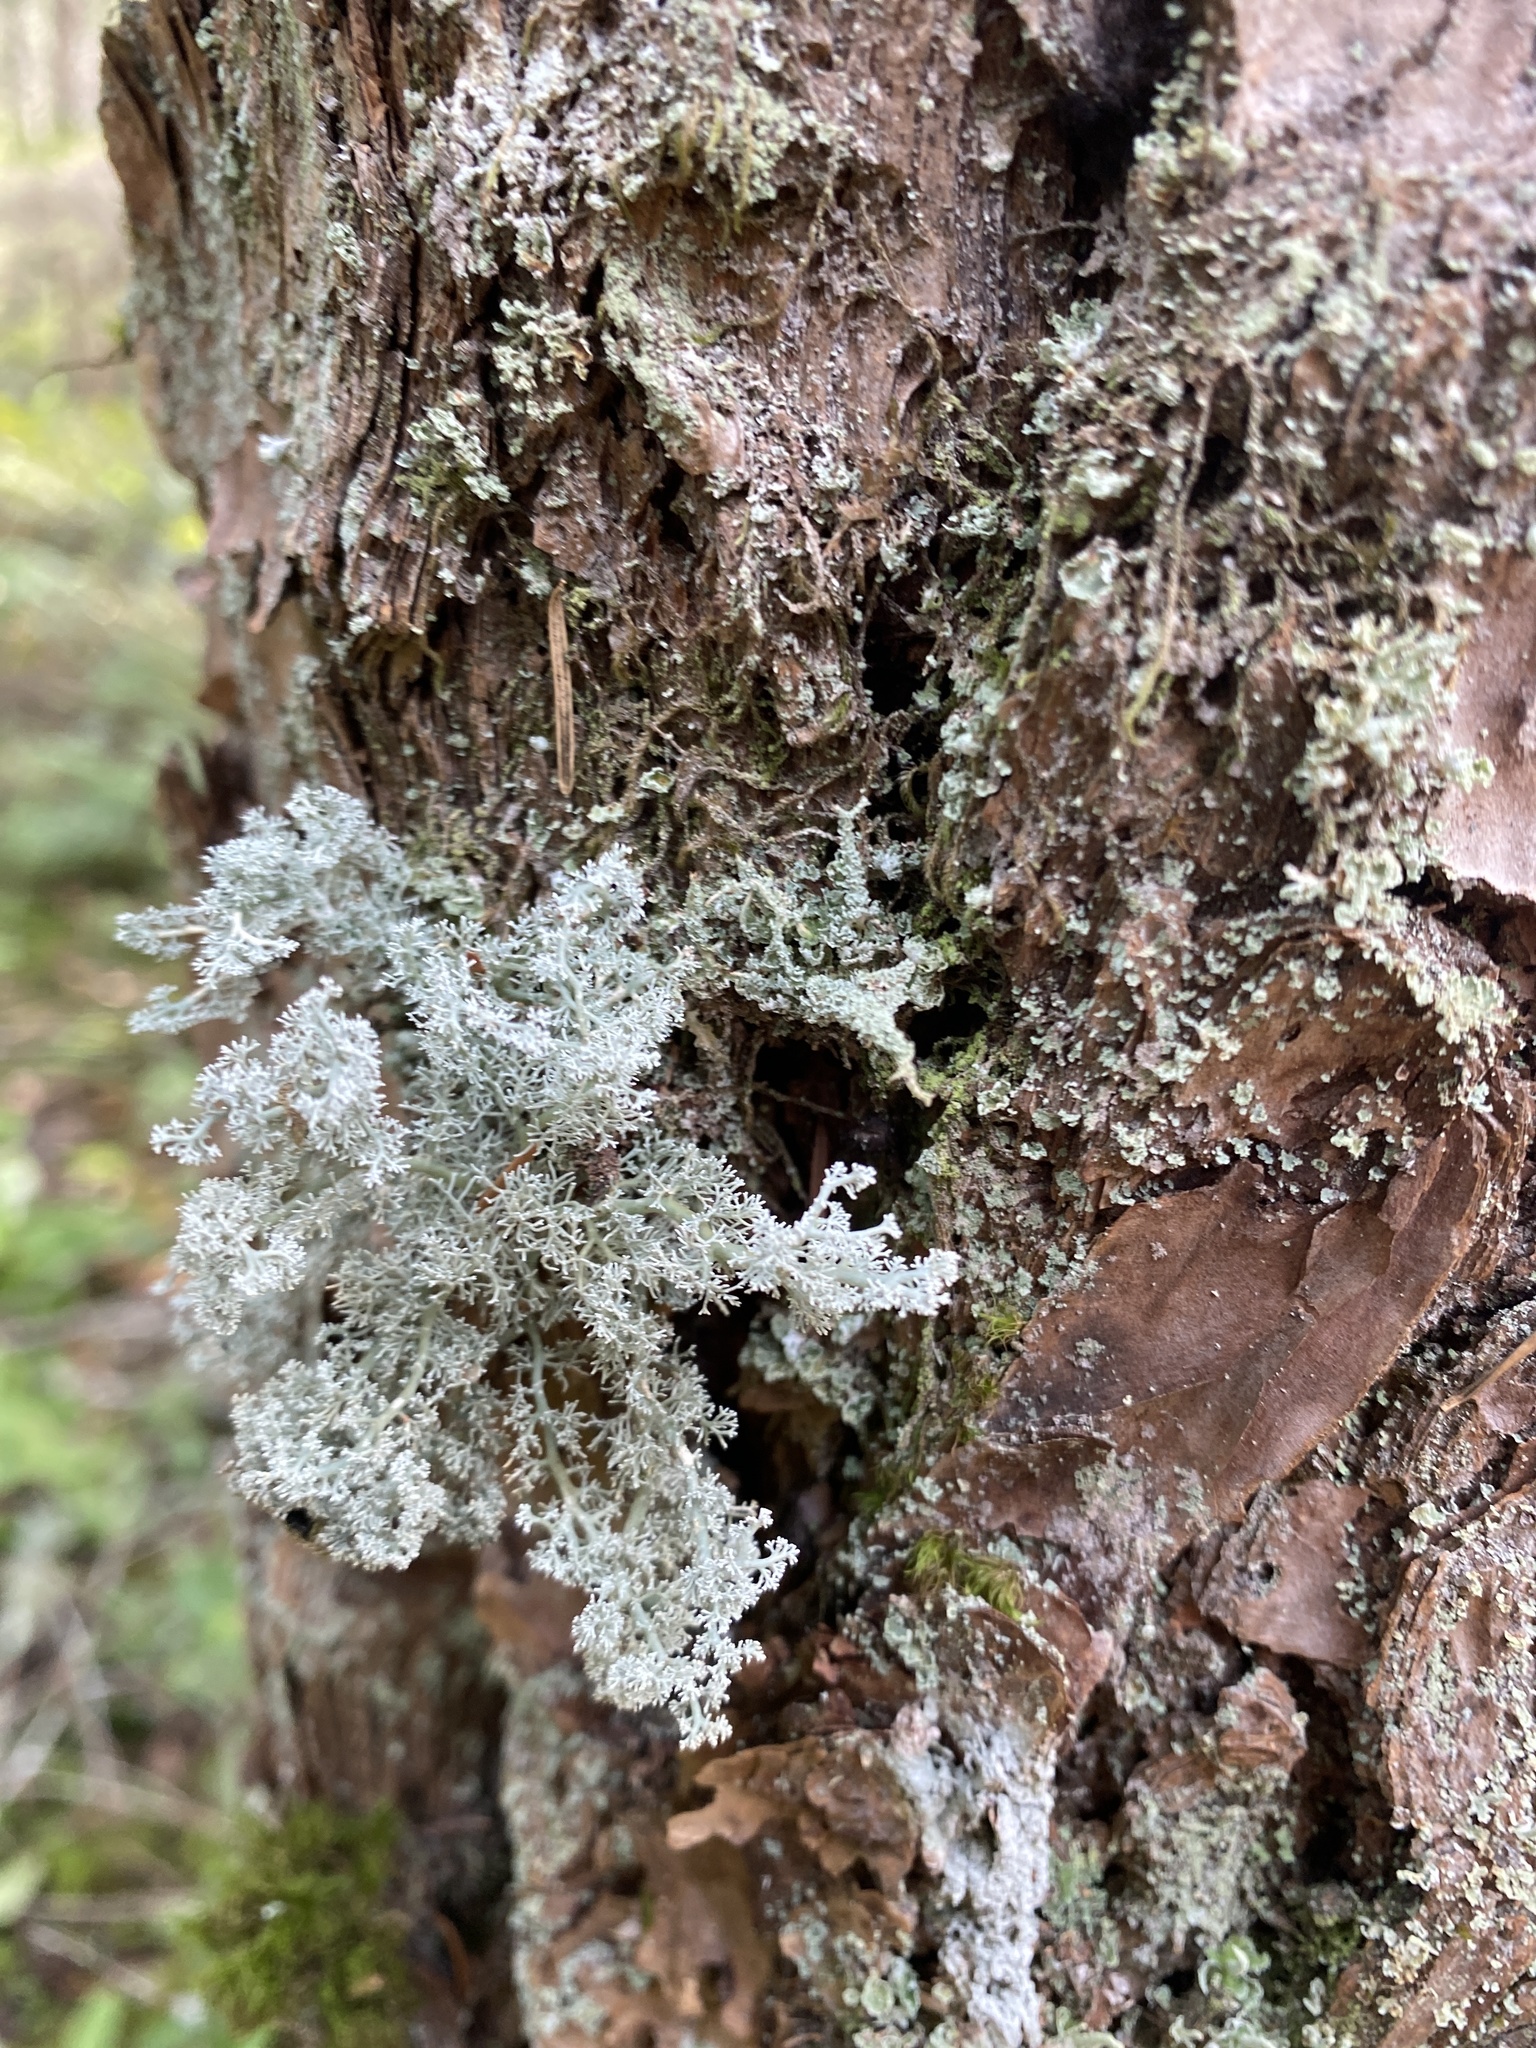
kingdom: Fungi
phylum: Ascomycota
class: Lecanoromycetes
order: Lecanorales
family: Sphaerophoraceae
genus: Sphaerophorus
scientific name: Sphaerophorus globosus
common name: Globe ball lichen
